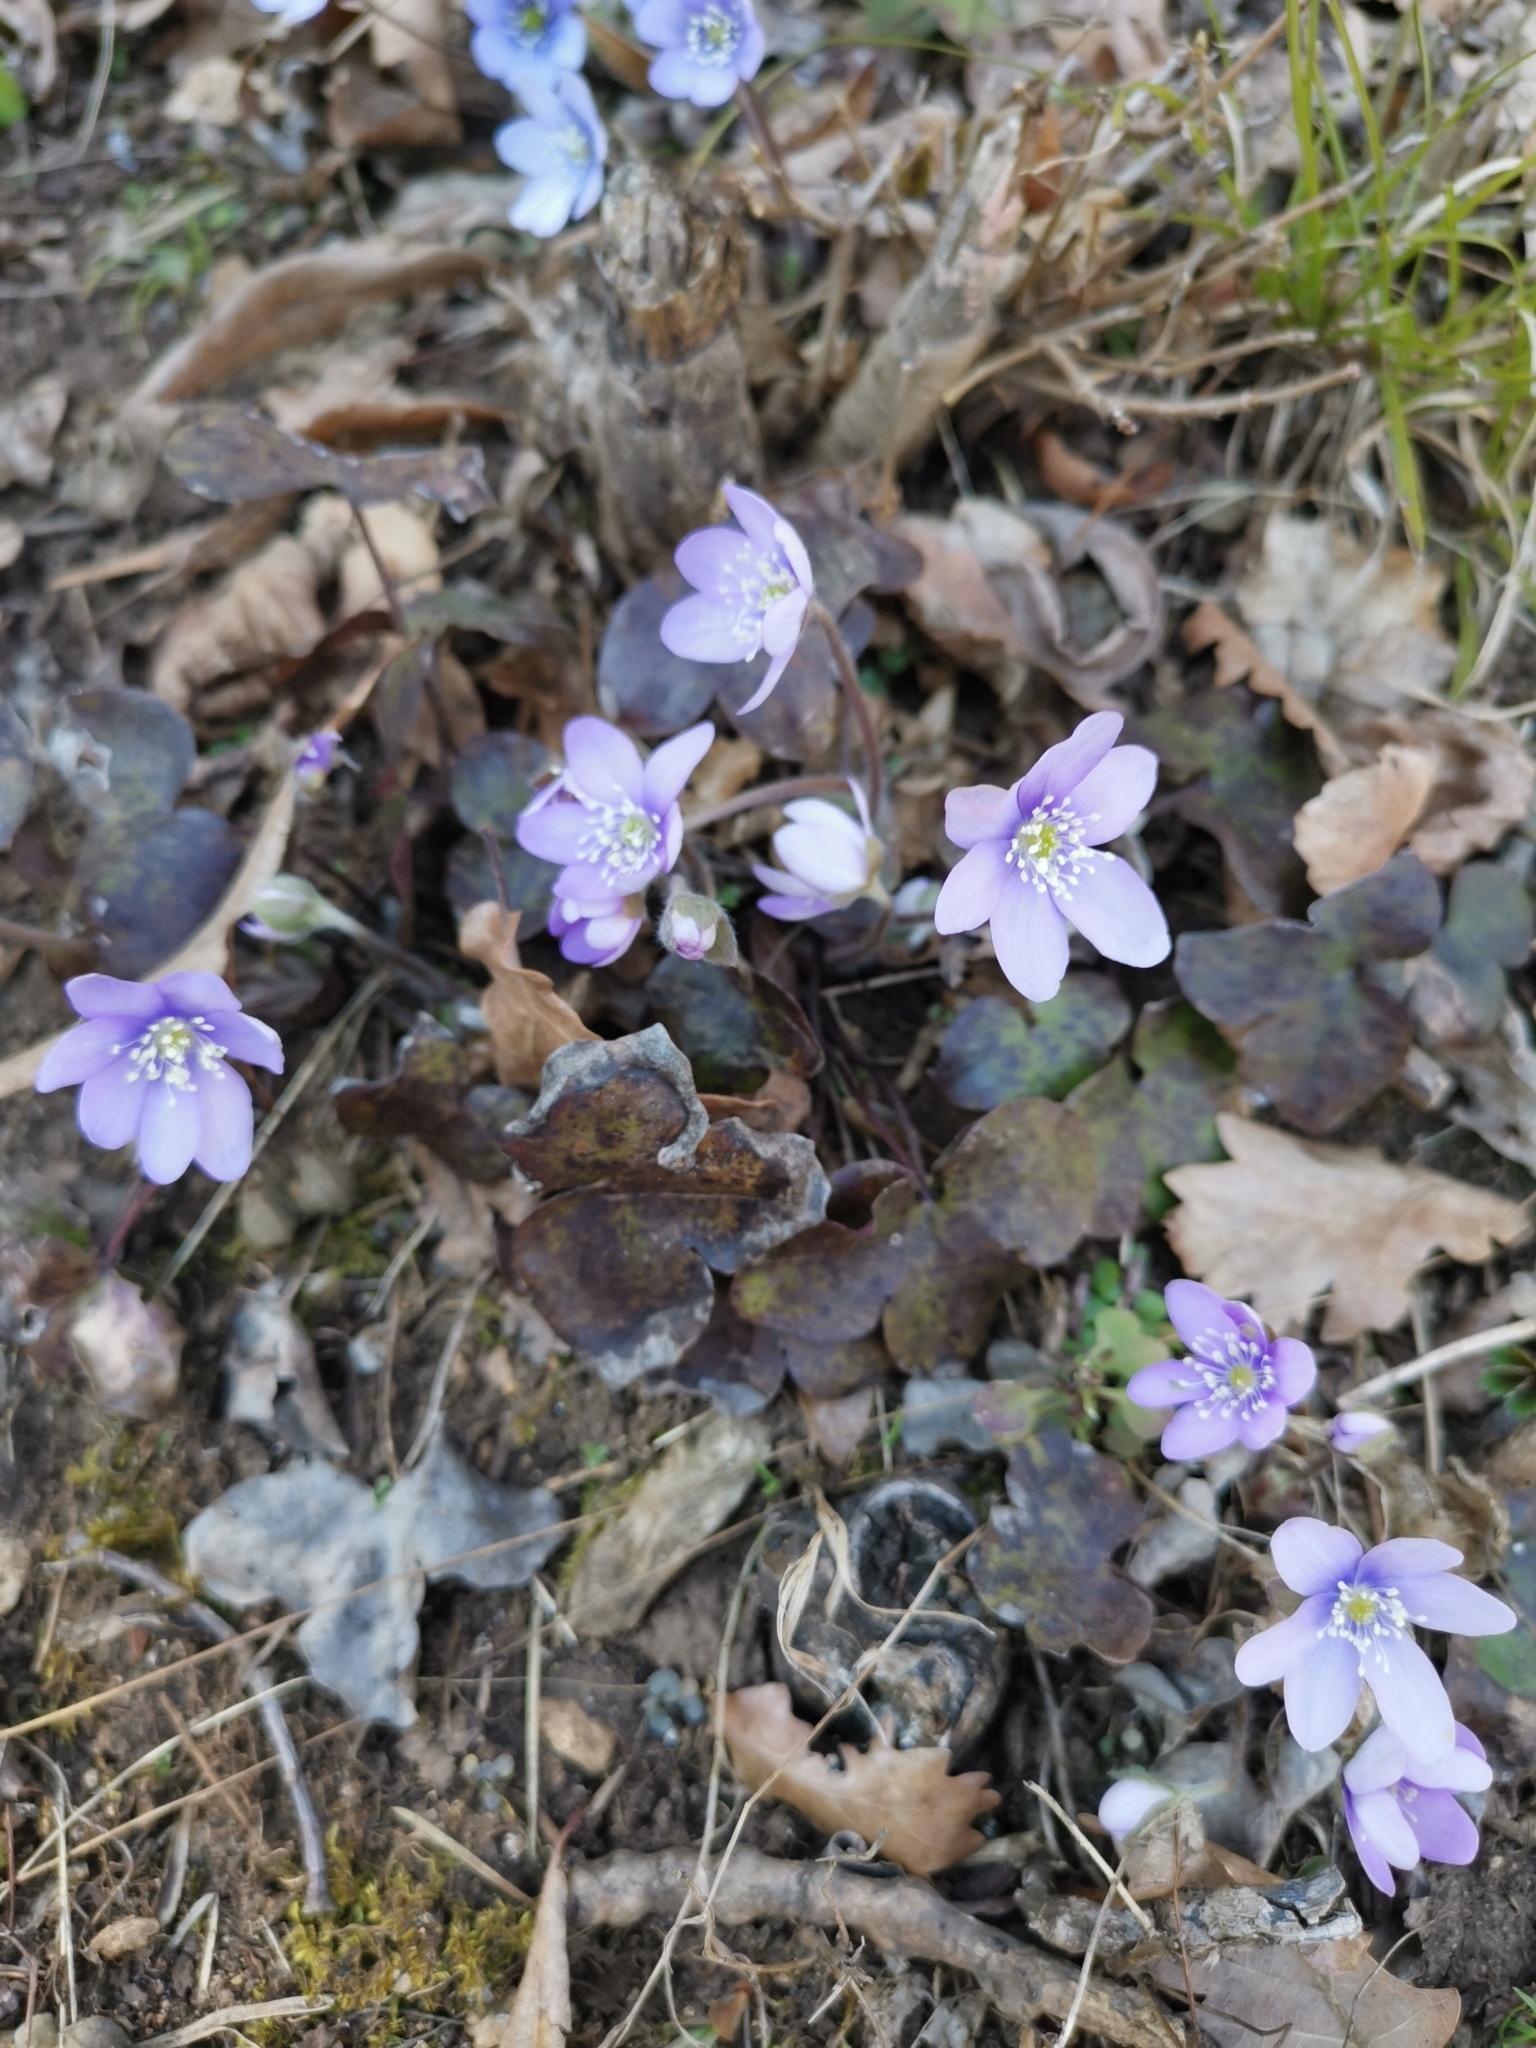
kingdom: Plantae
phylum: Tracheophyta
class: Magnoliopsida
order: Ranunculales
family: Ranunculaceae
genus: Hepatica
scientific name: Hepatica nobilis
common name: Liverleaf
